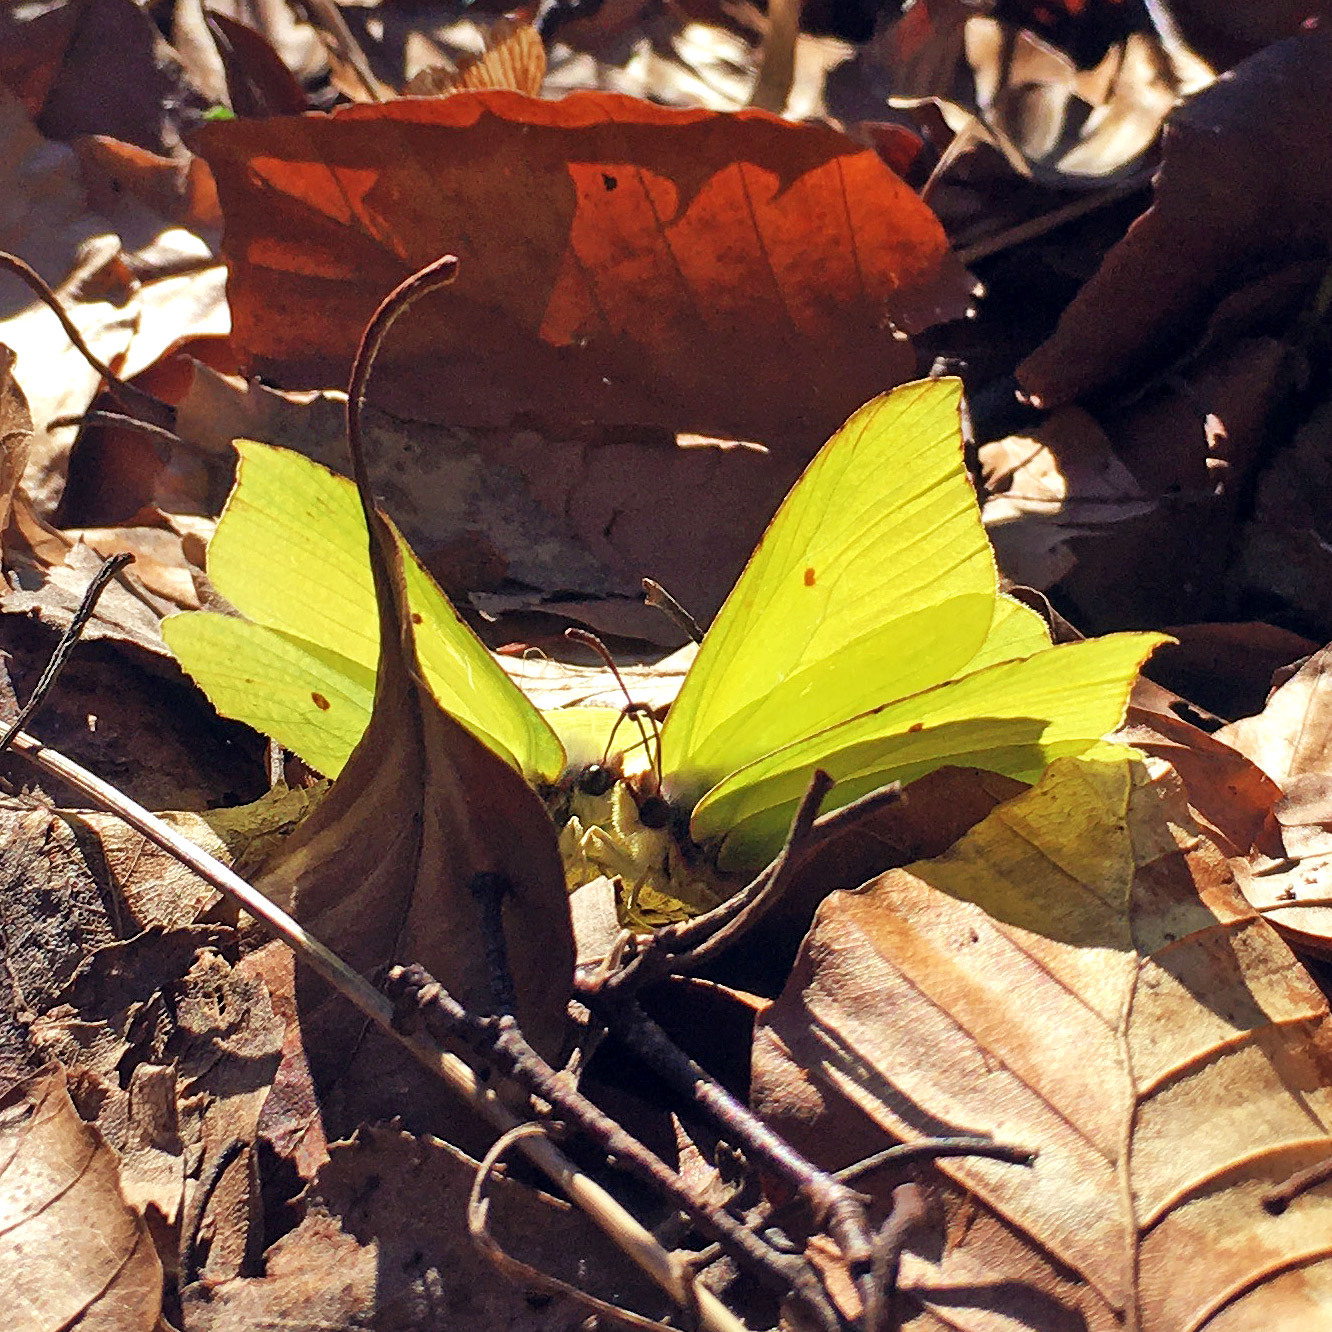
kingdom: Animalia
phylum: Arthropoda
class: Insecta
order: Lepidoptera
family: Pieridae
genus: Gonepteryx
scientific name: Gonepteryx rhamni
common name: Brimstone
